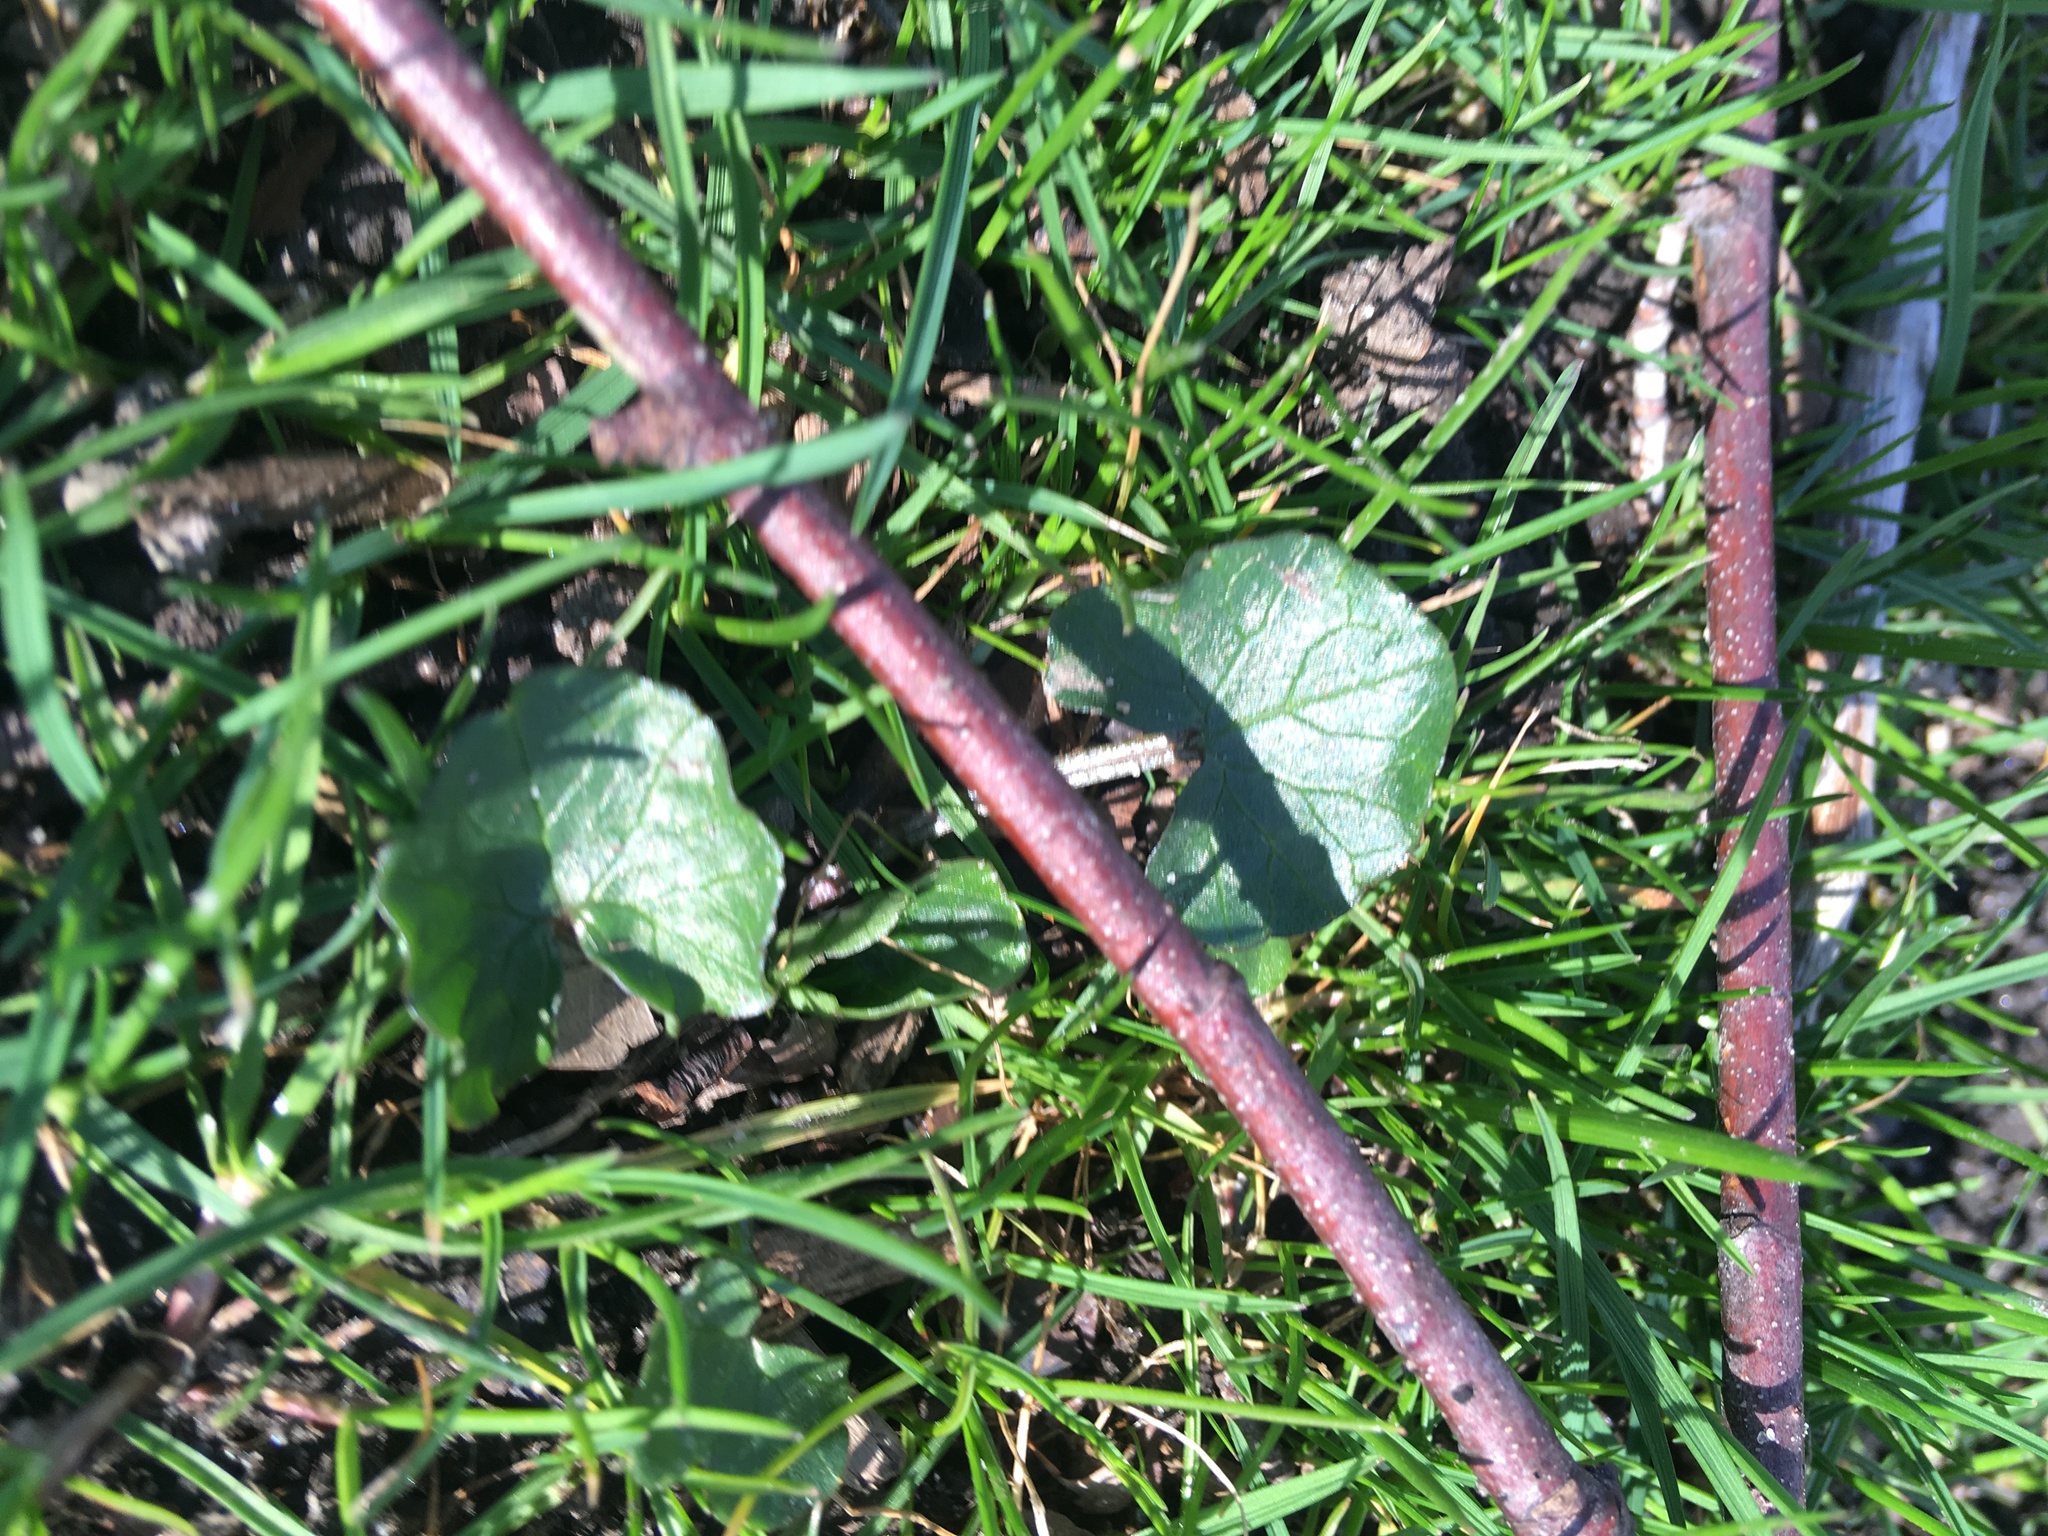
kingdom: Plantae
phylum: Tracheophyta
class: Magnoliopsida
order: Ranunculales
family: Ranunculaceae
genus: Ficaria
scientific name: Ficaria verna
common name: Lesser celandine
